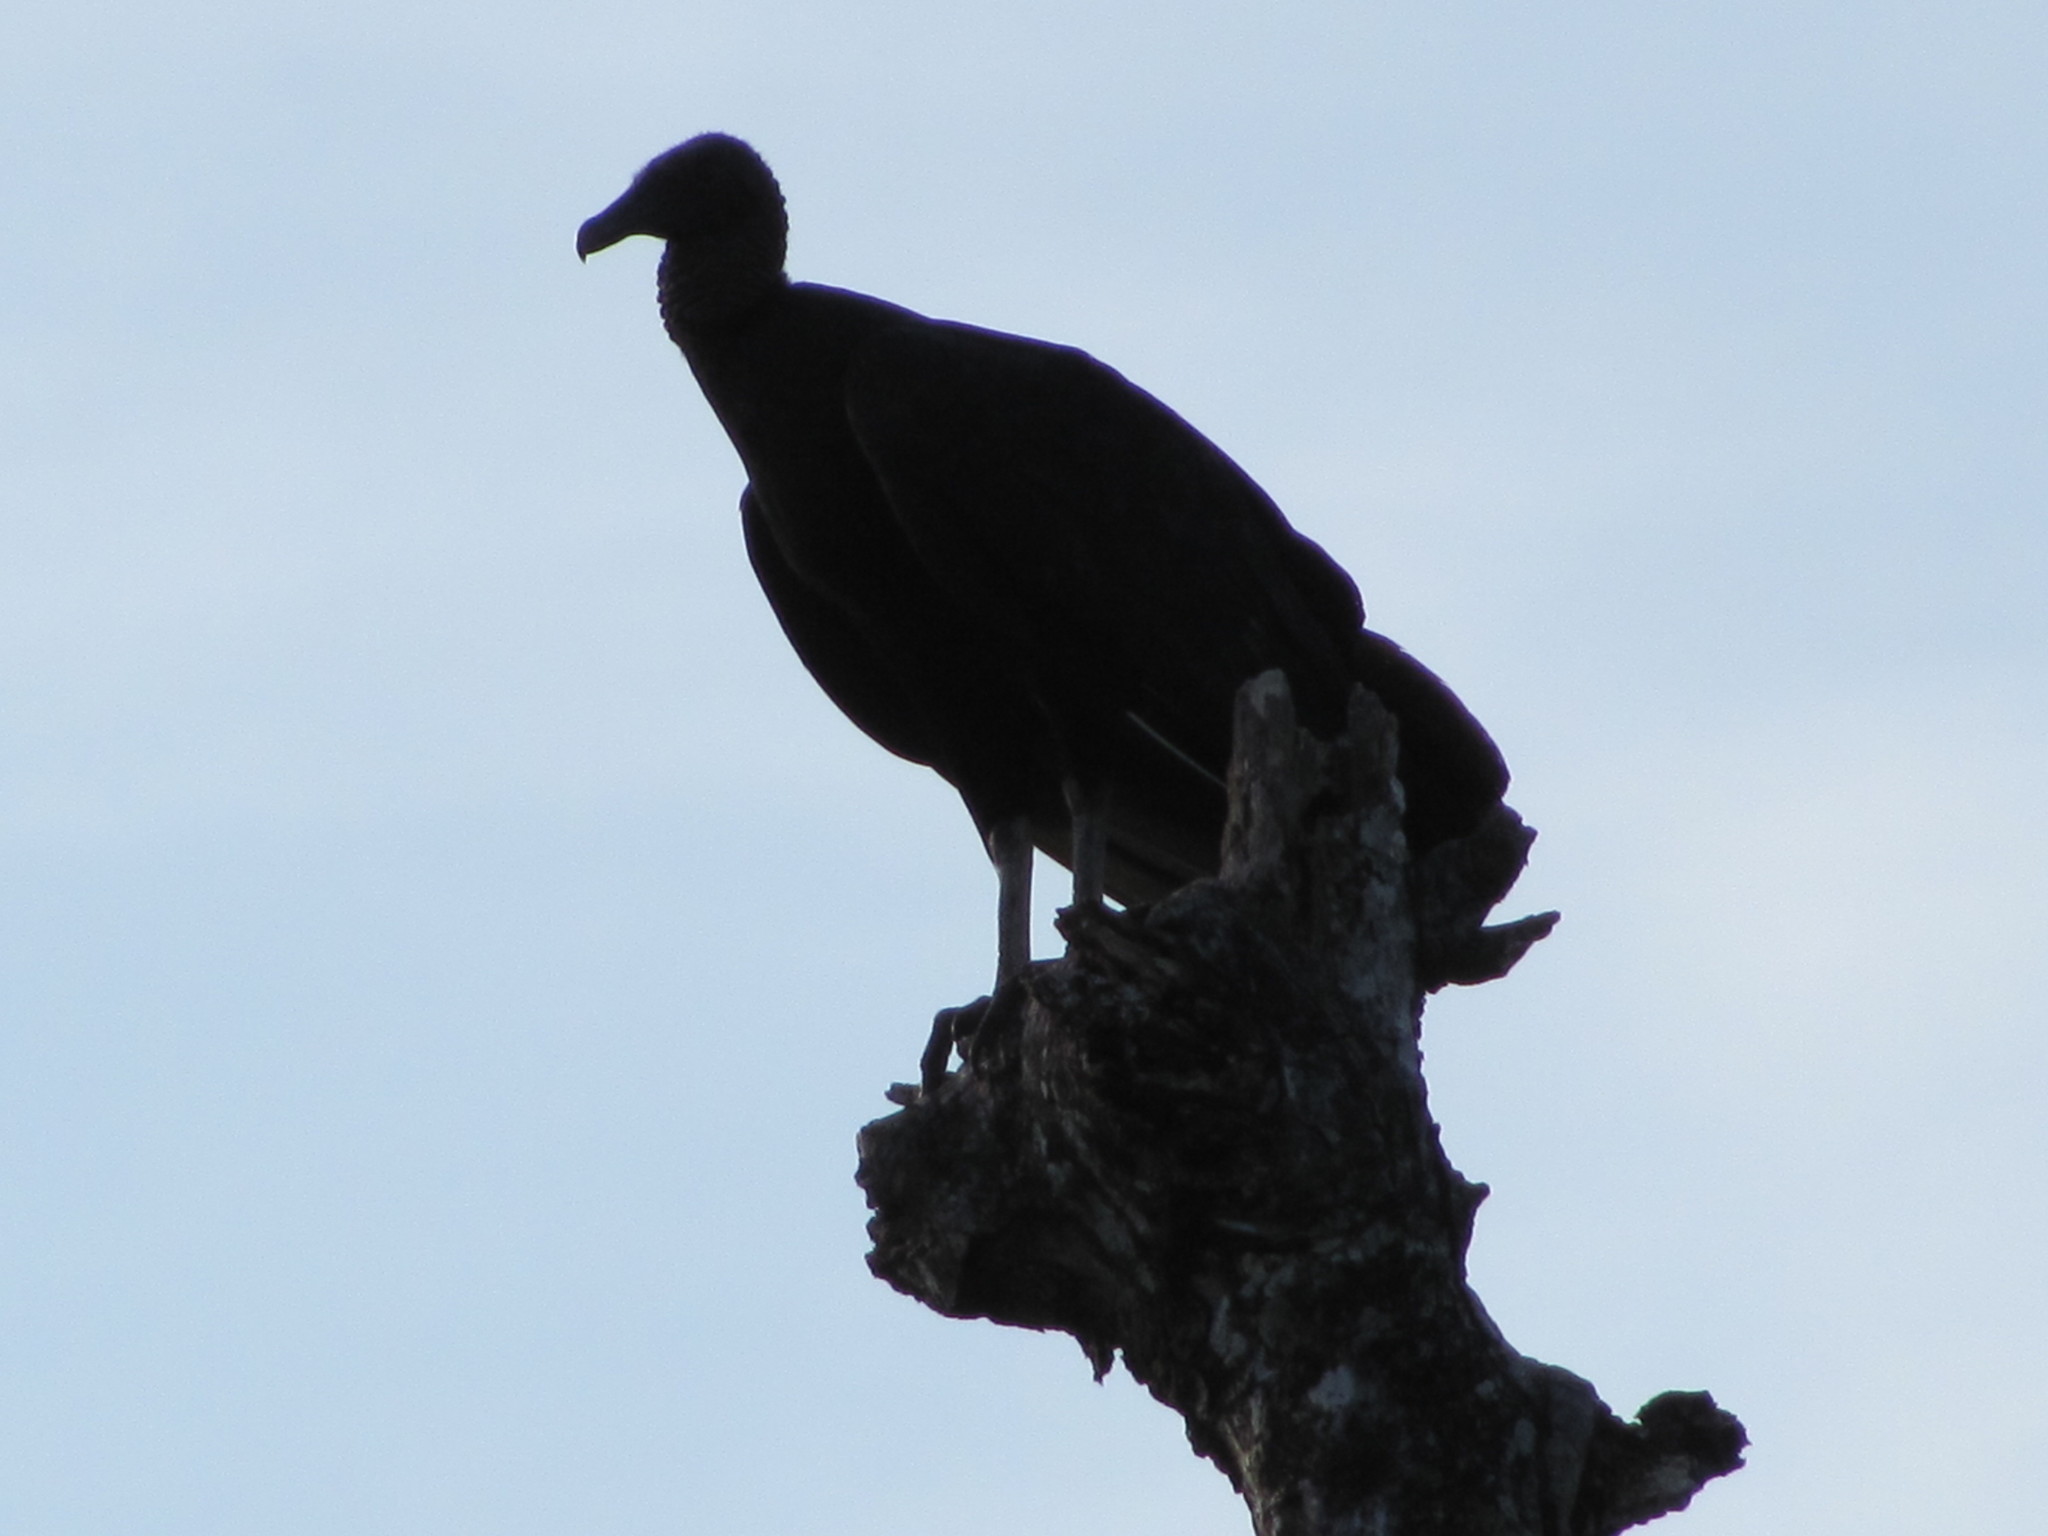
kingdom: Animalia
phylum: Chordata
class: Aves
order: Accipitriformes
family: Cathartidae
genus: Coragyps
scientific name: Coragyps atratus
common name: Black vulture
